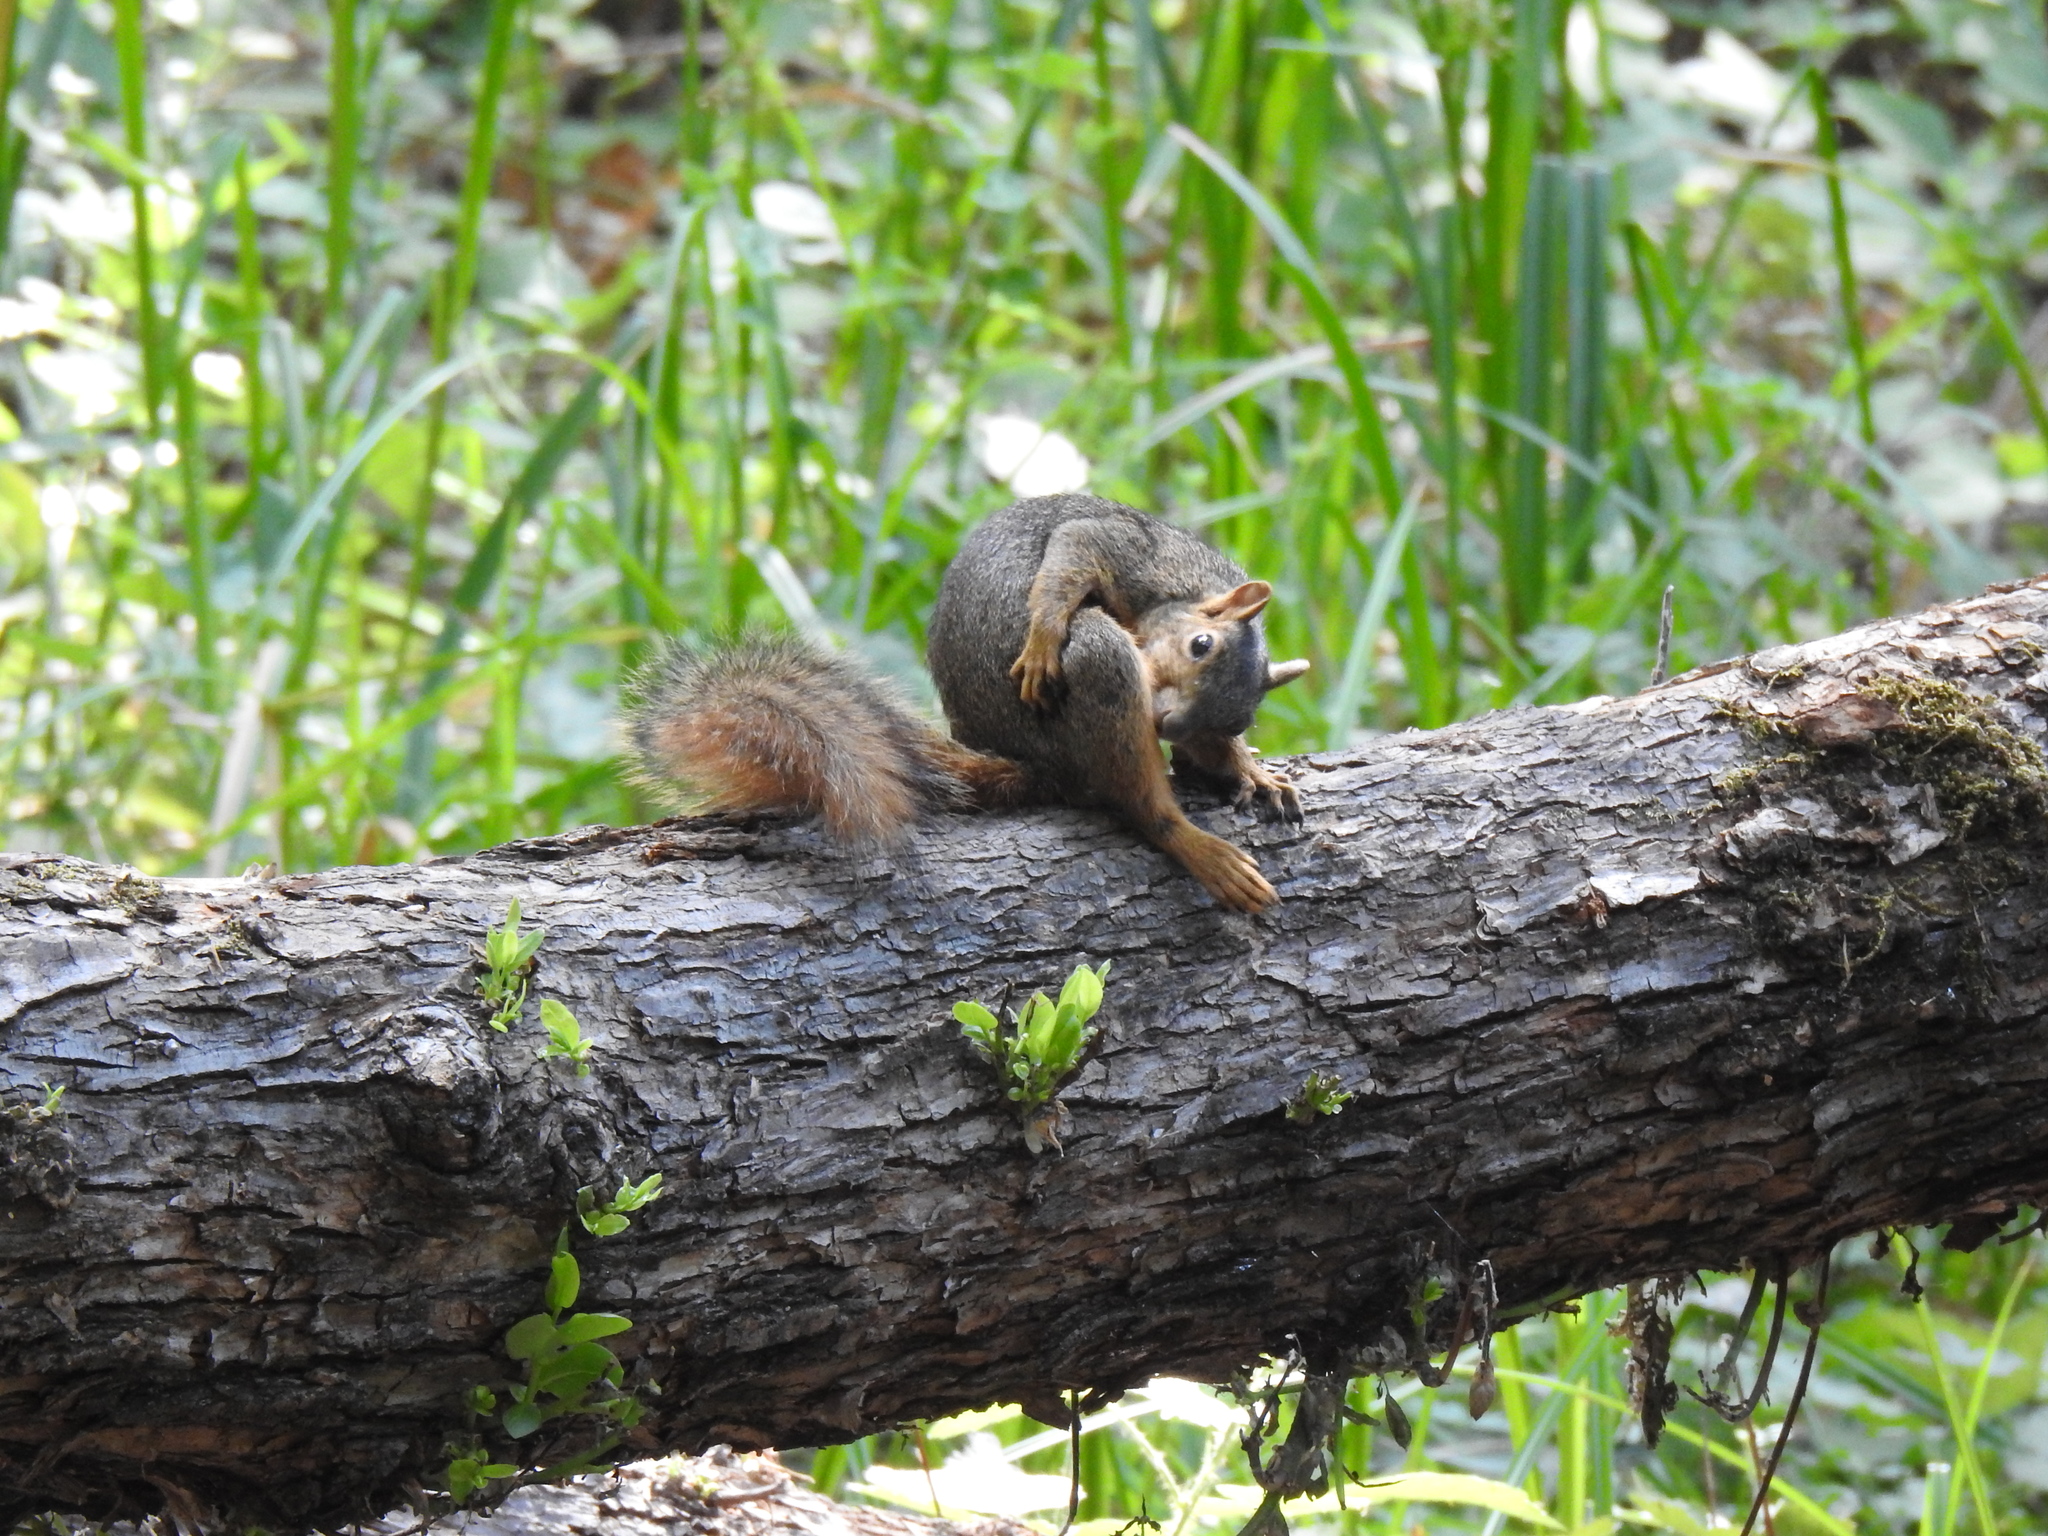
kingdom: Animalia
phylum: Chordata
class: Mammalia
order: Rodentia
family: Sciuridae
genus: Sciurus
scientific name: Sciurus niger
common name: Fox squirrel
